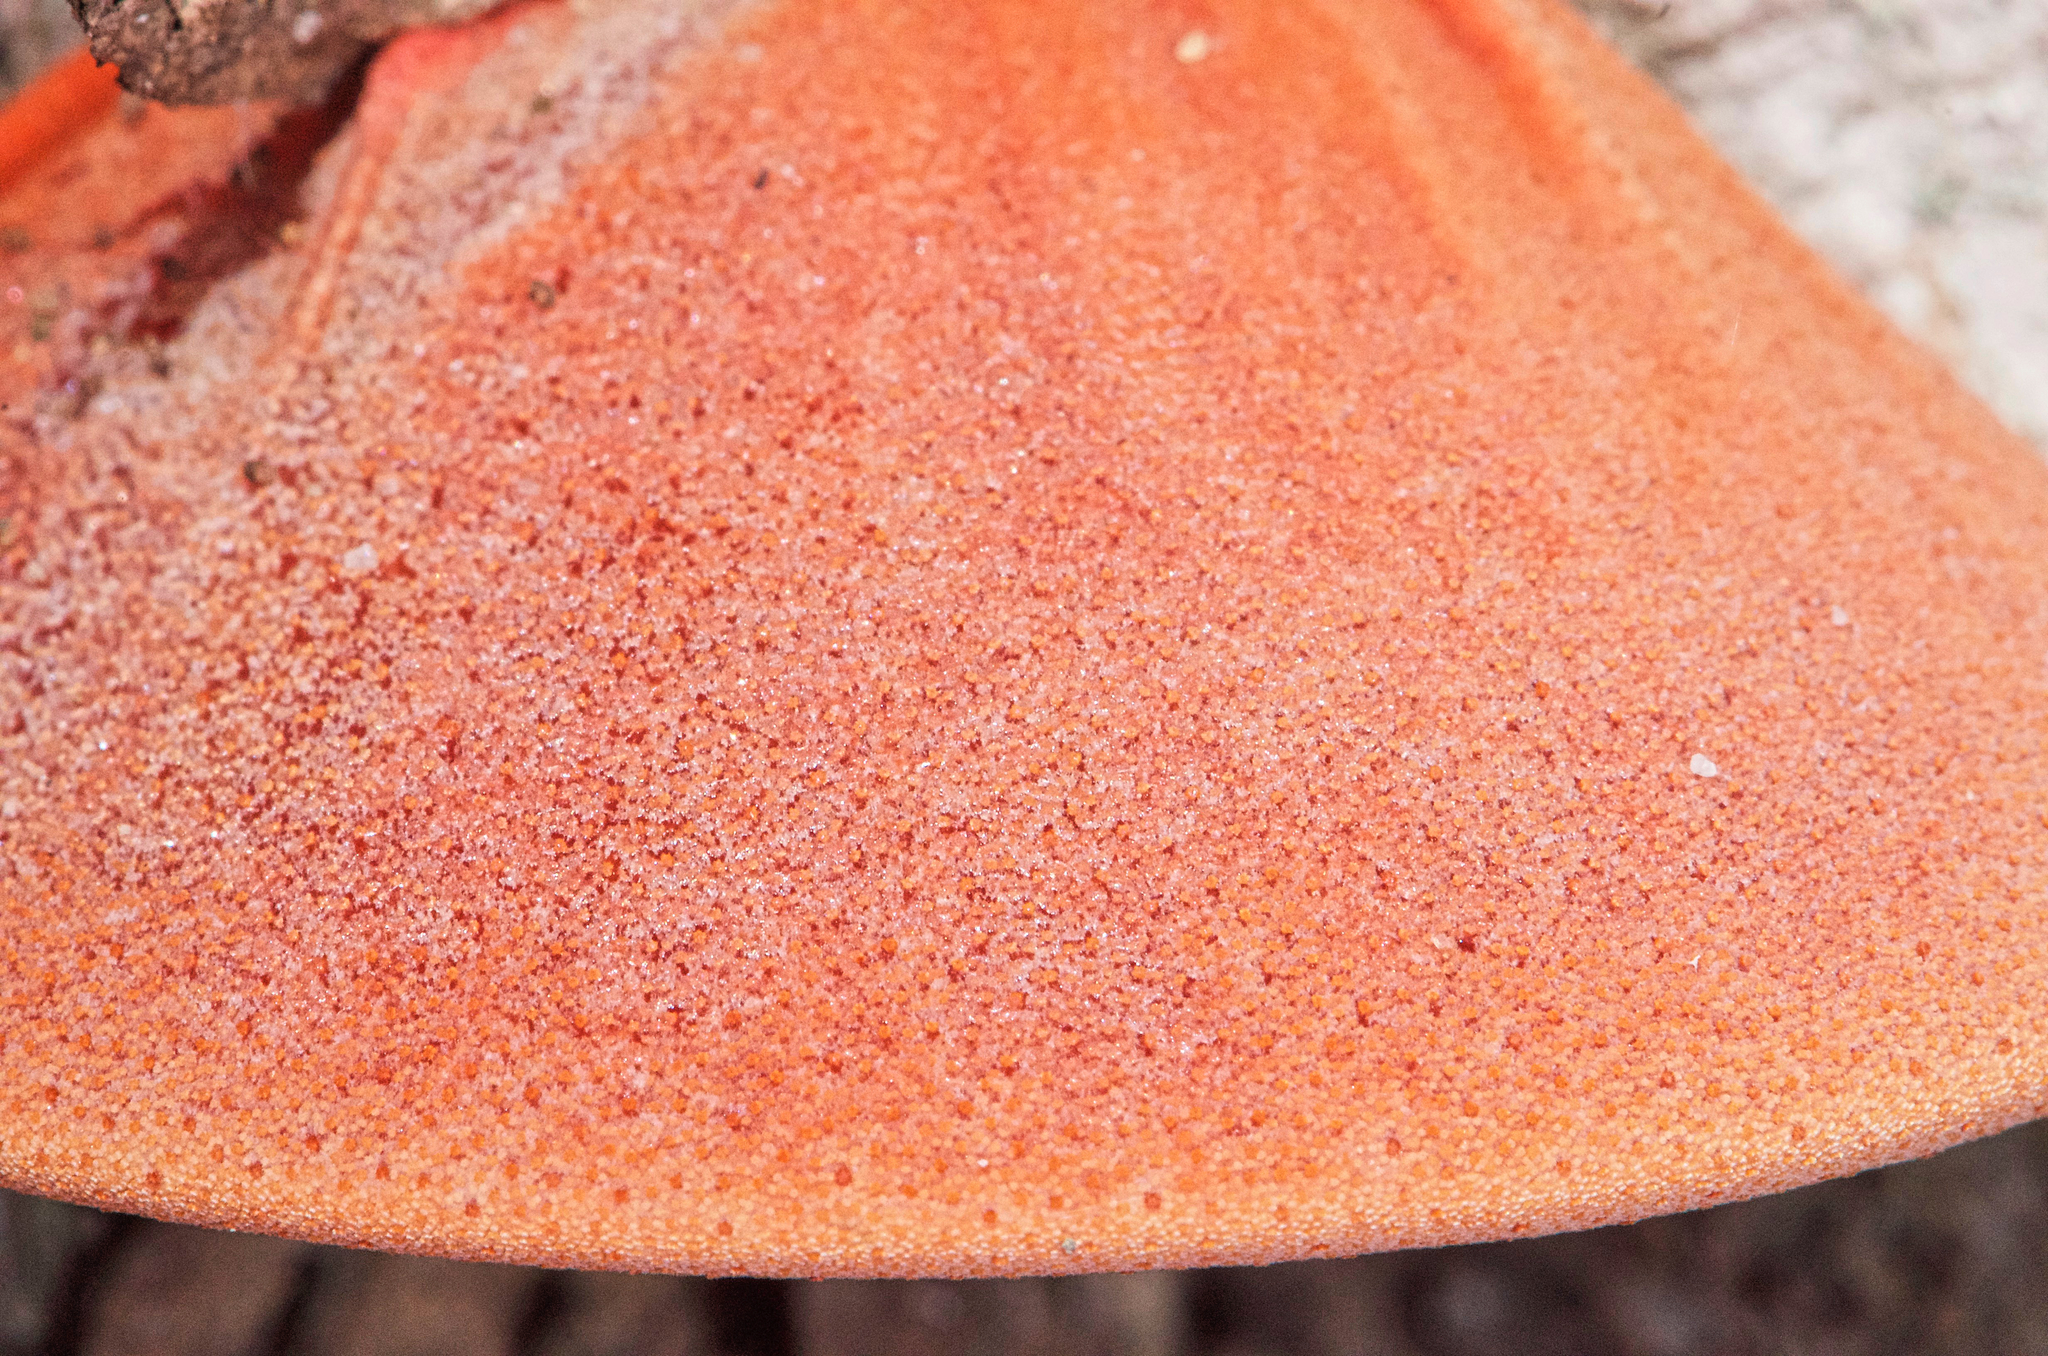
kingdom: Fungi
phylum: Basidiomycota
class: Agaricomycetes
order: Agaricales
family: Fistulinaceae
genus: Fistulina
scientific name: Fistulina hepatica
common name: Beef-steak fungus
